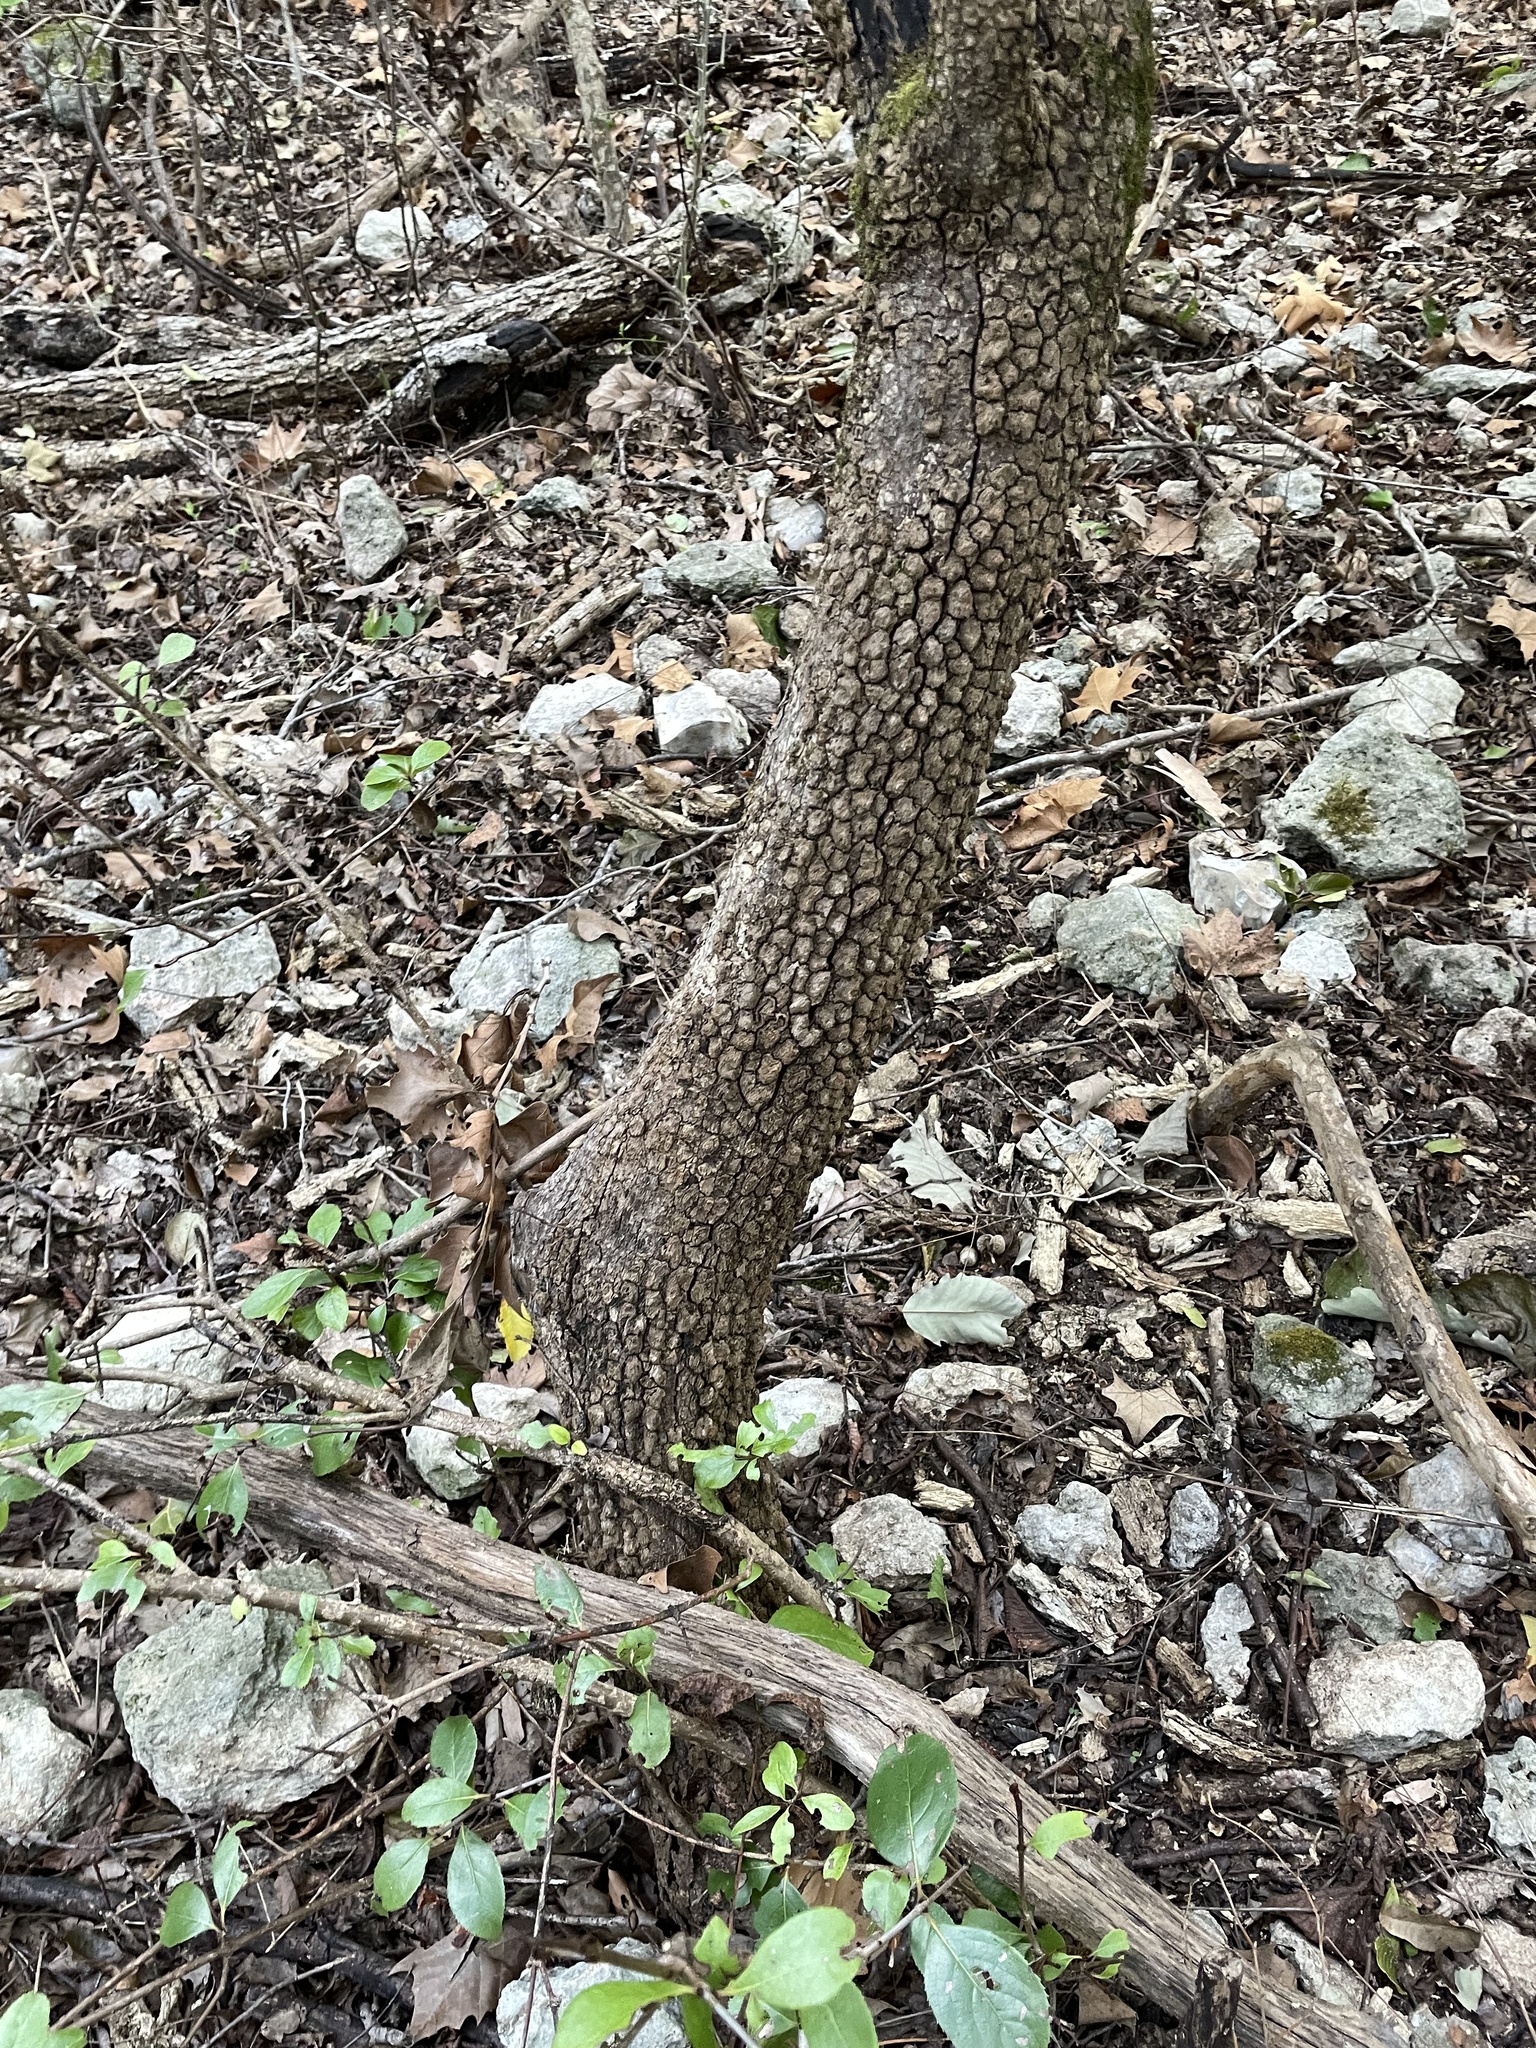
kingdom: Plantae
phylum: Tracheophyta
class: Magnoliopsida
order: Dipsacales
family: Viburnaceae
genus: Viburnum
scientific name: Viburnum rufidulum
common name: Blue haw
